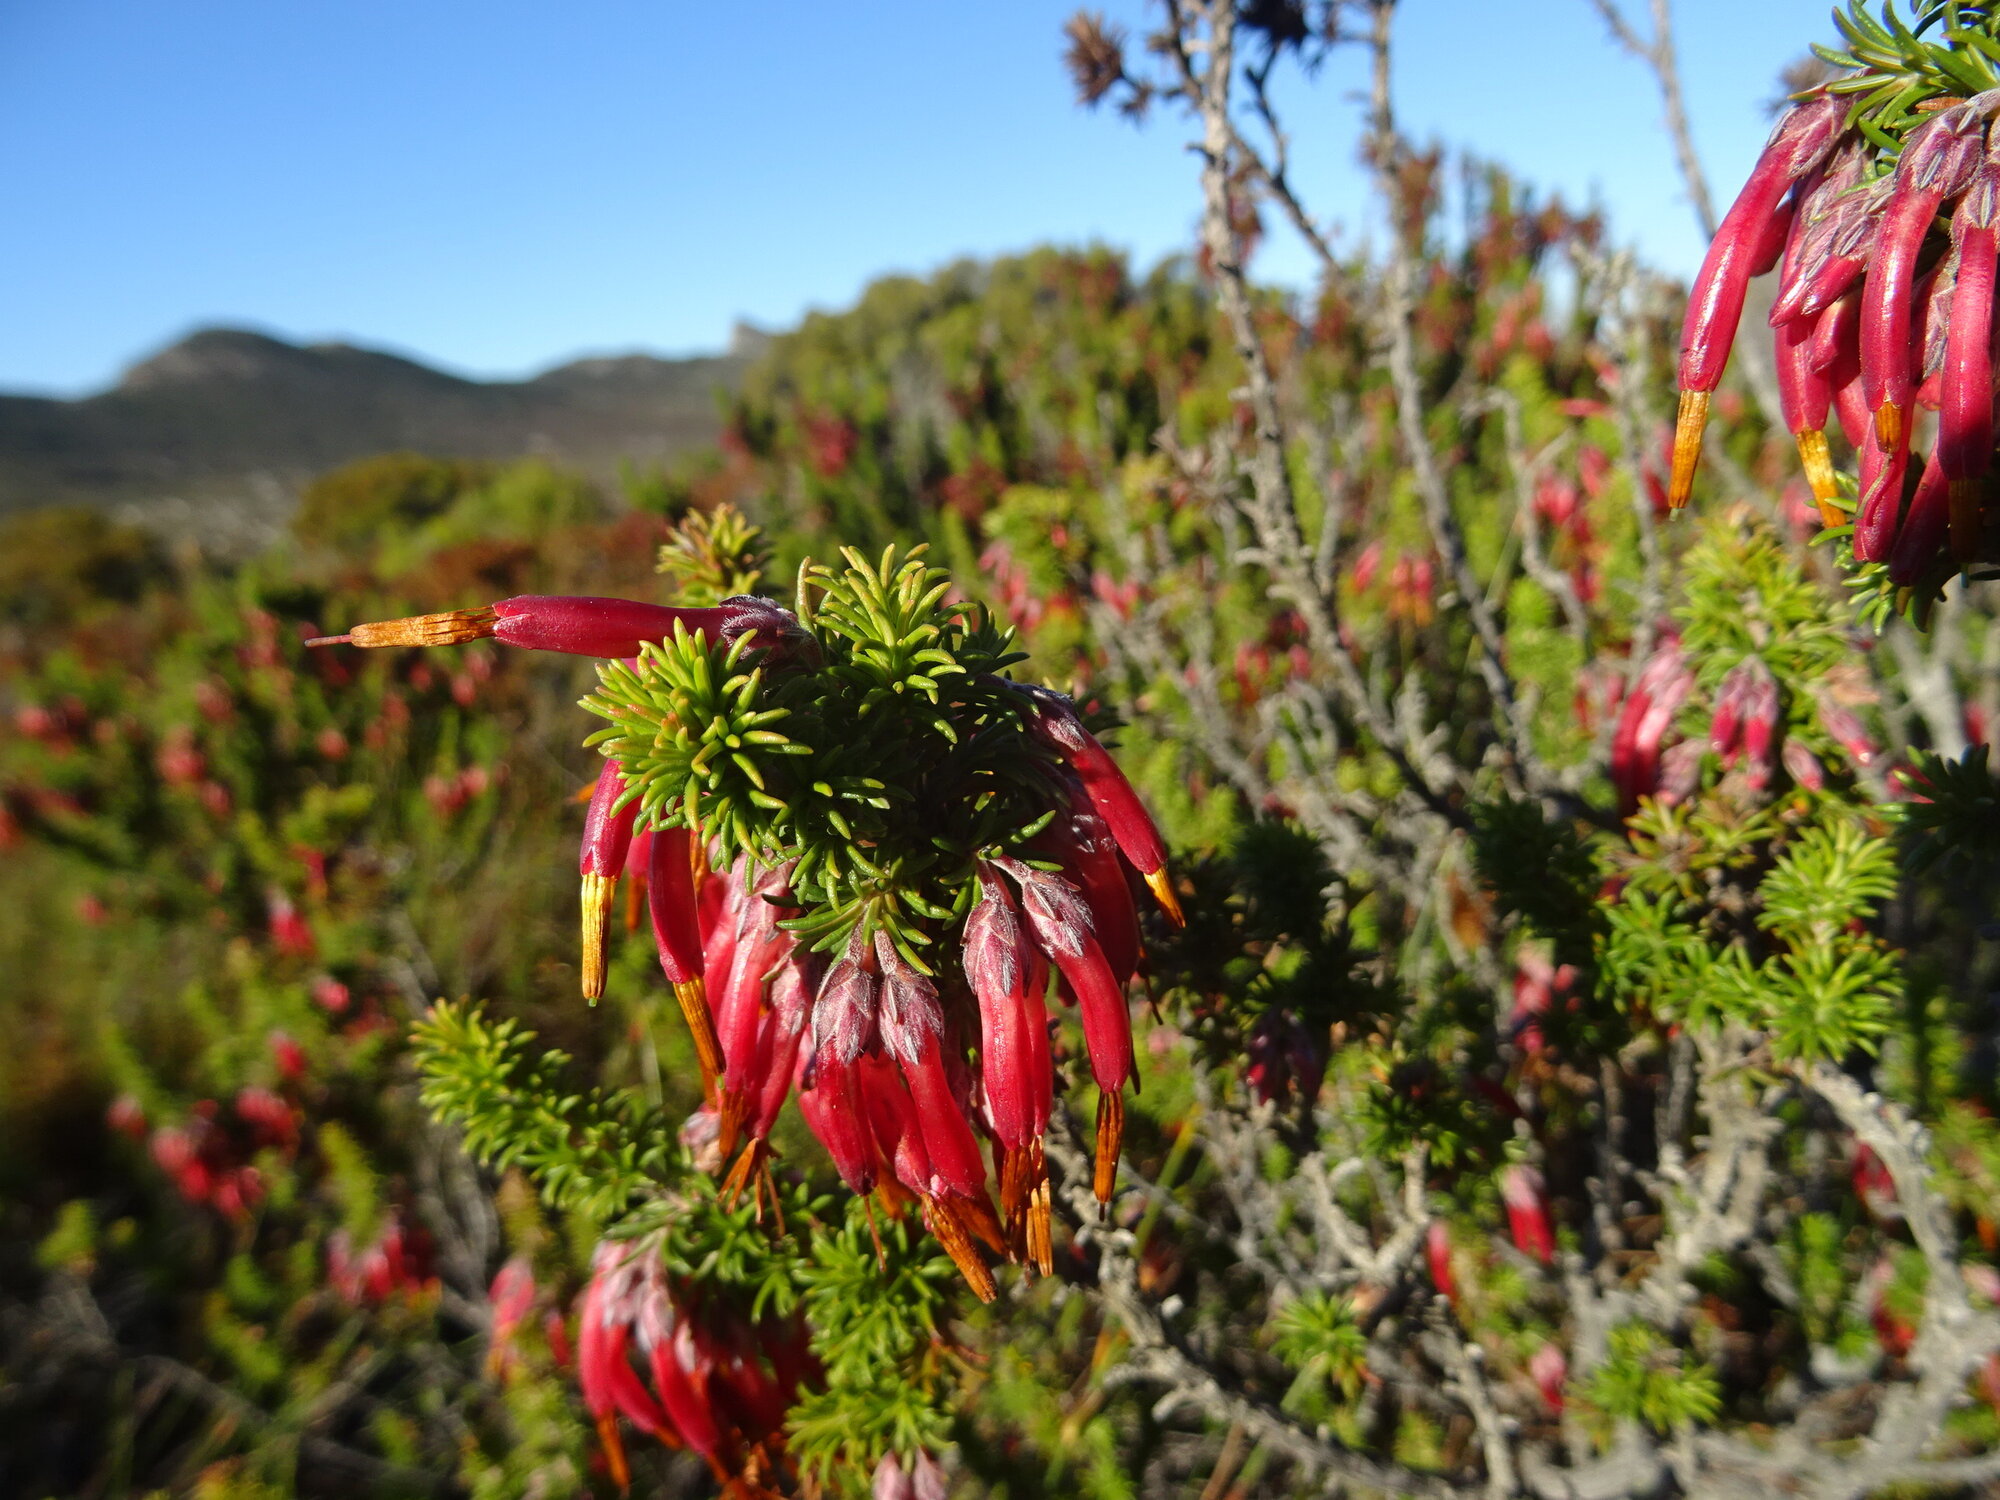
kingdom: Plantae
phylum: Tracheophyta
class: Magnoliopsida
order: Ericales
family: Ericaceae
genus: Erica
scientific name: Erica coccinea
